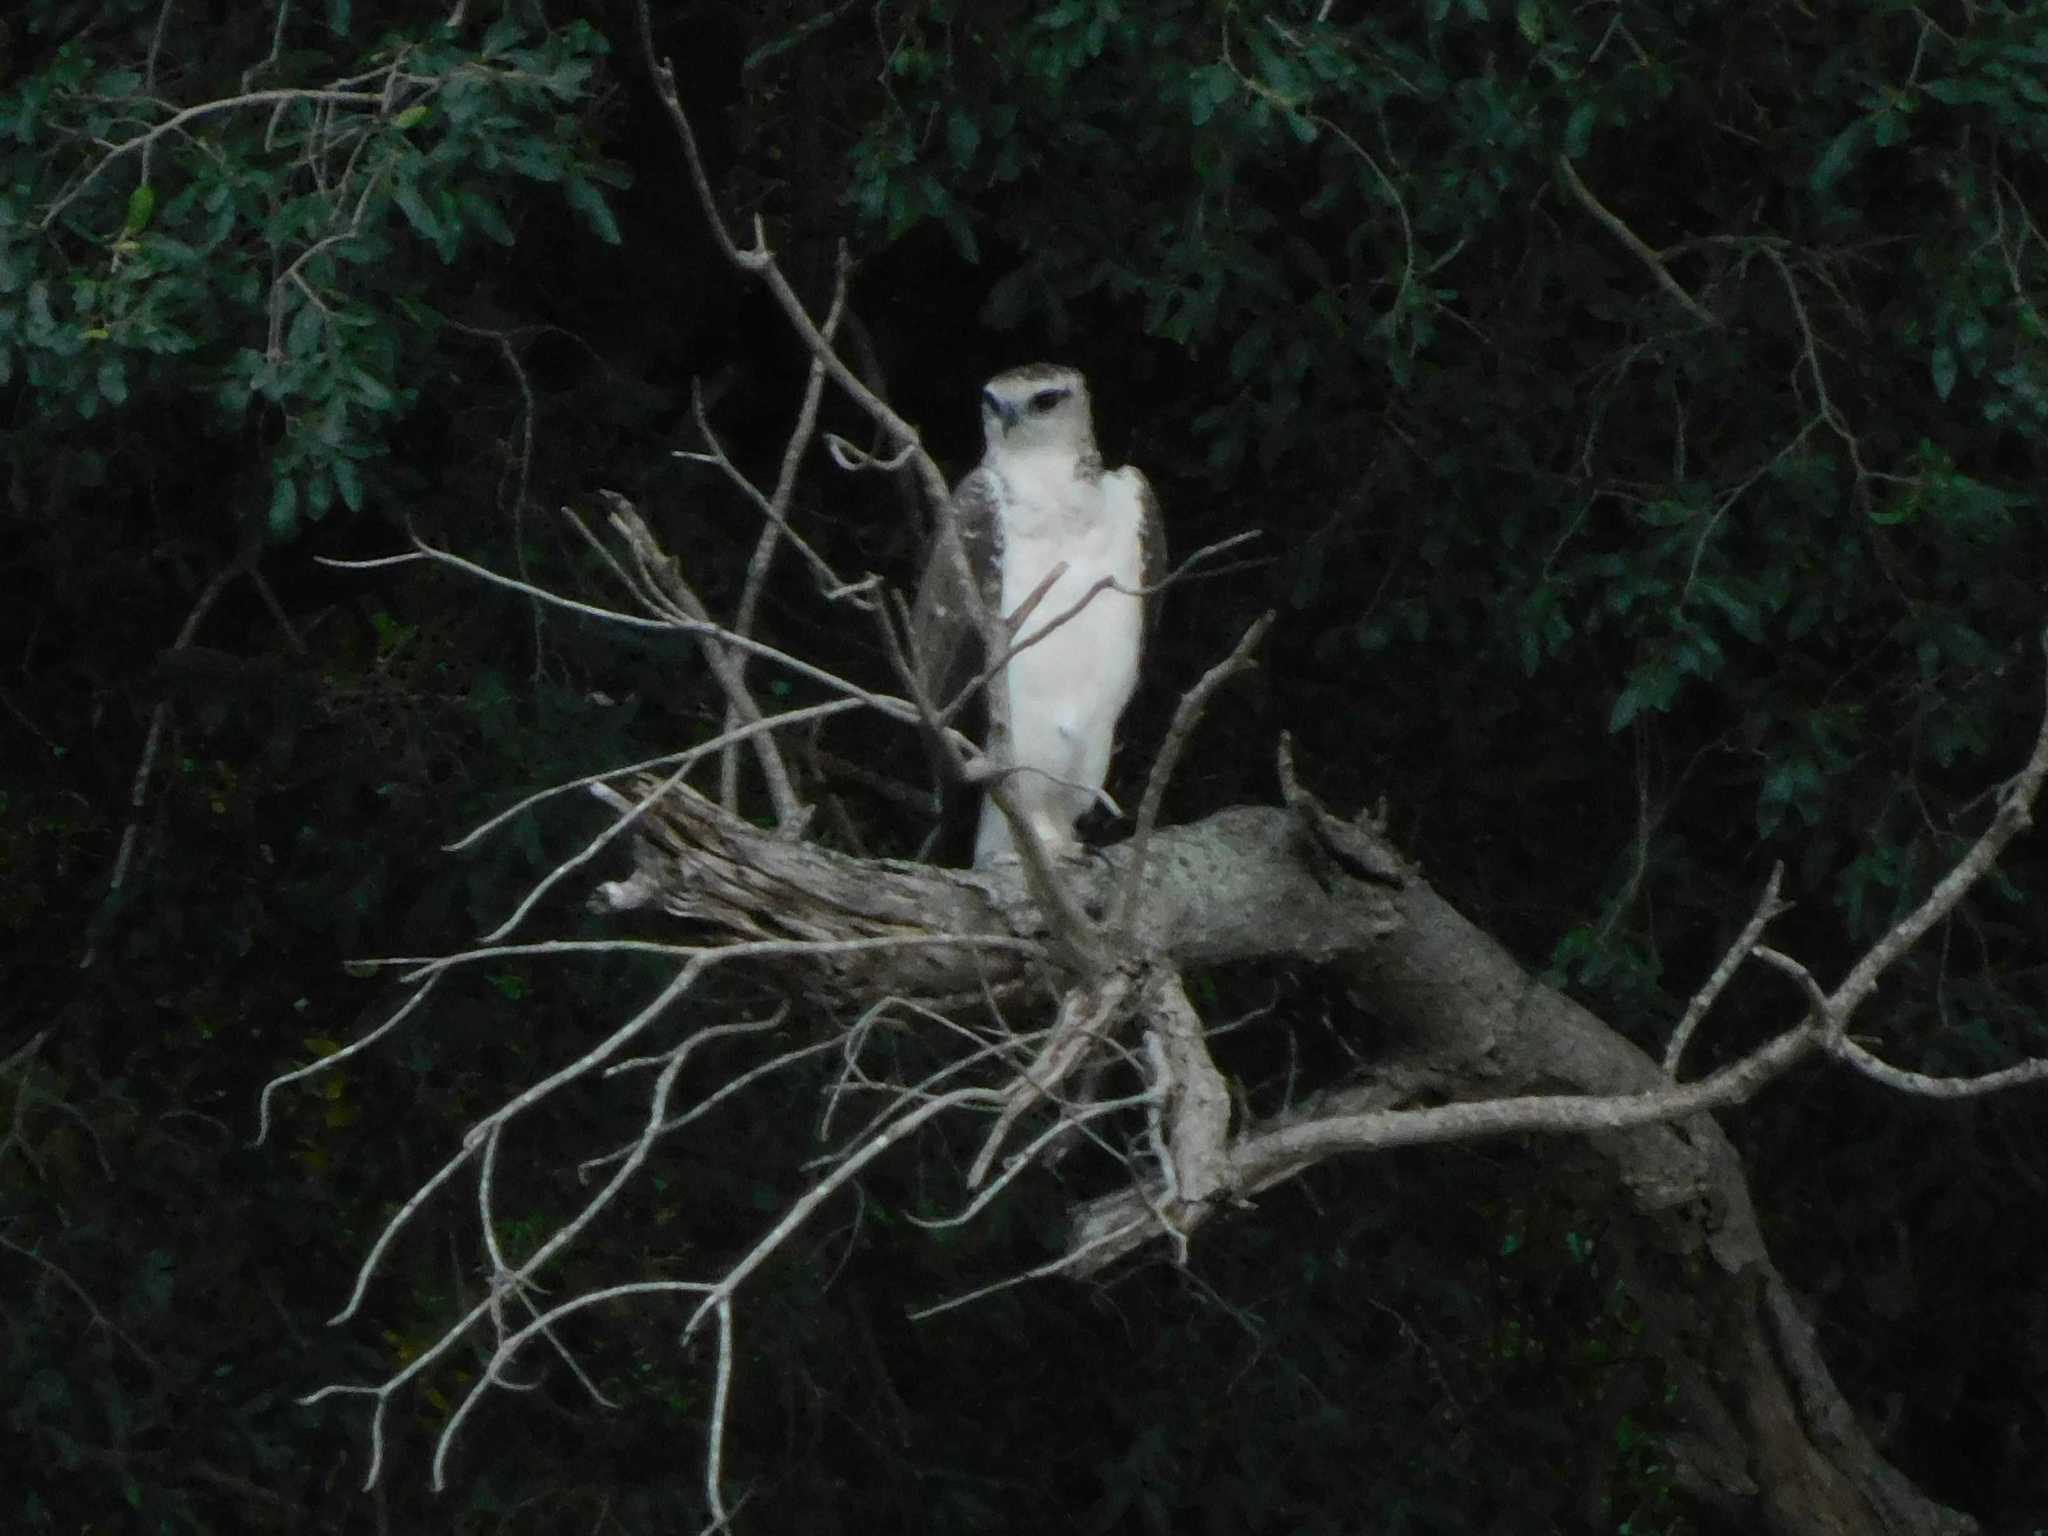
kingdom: Animalia
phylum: Chordata
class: Aves
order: Accipitriformes
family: Accipitridae
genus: Polemaetus
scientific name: Polemaetus bellicosus
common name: Martial eagle
